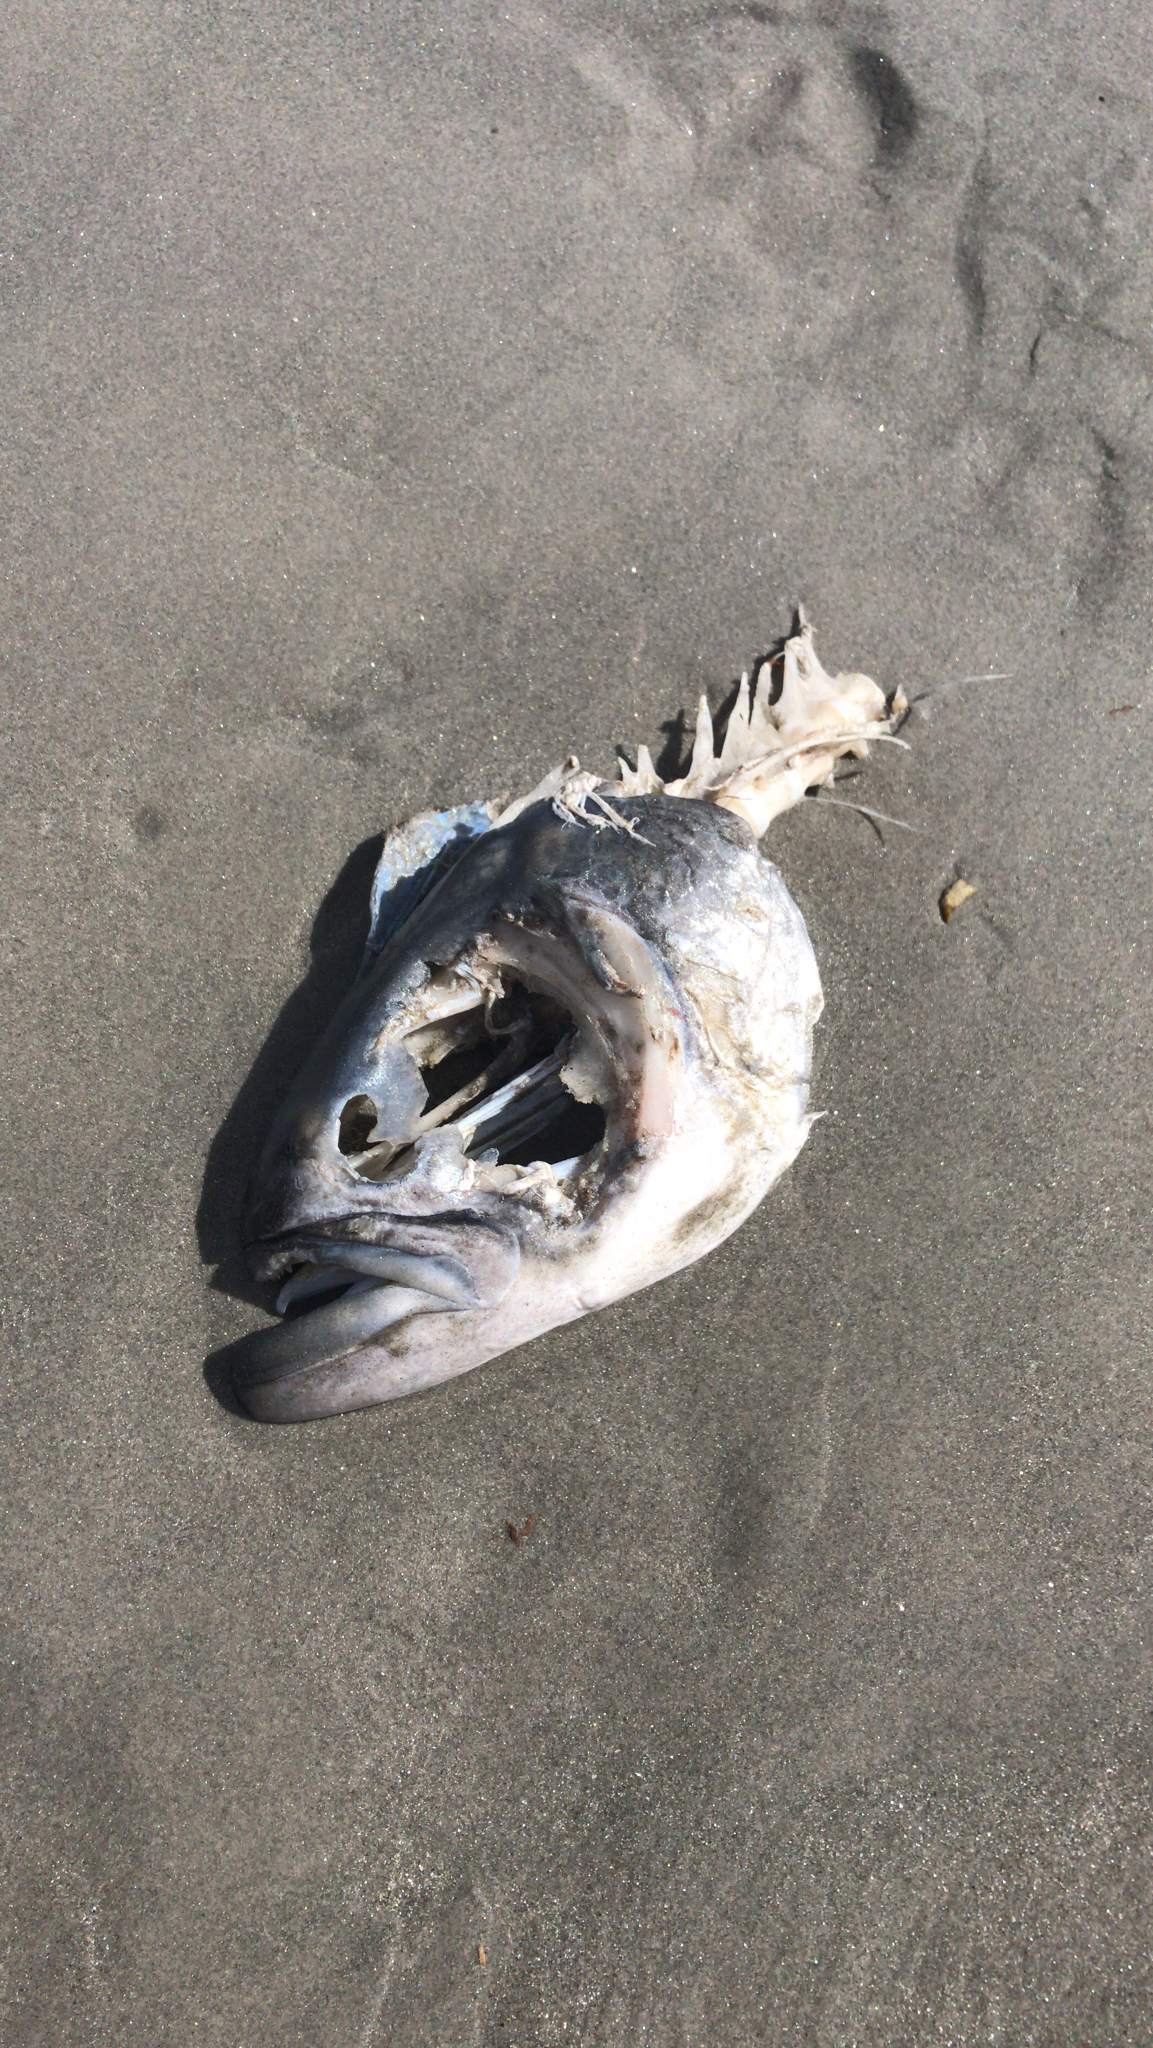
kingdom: Animalia
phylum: Chordata
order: Perciformes
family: Pomatomidae
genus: Pomatomus
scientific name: Pomatomus saltatrix
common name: Bluefish
